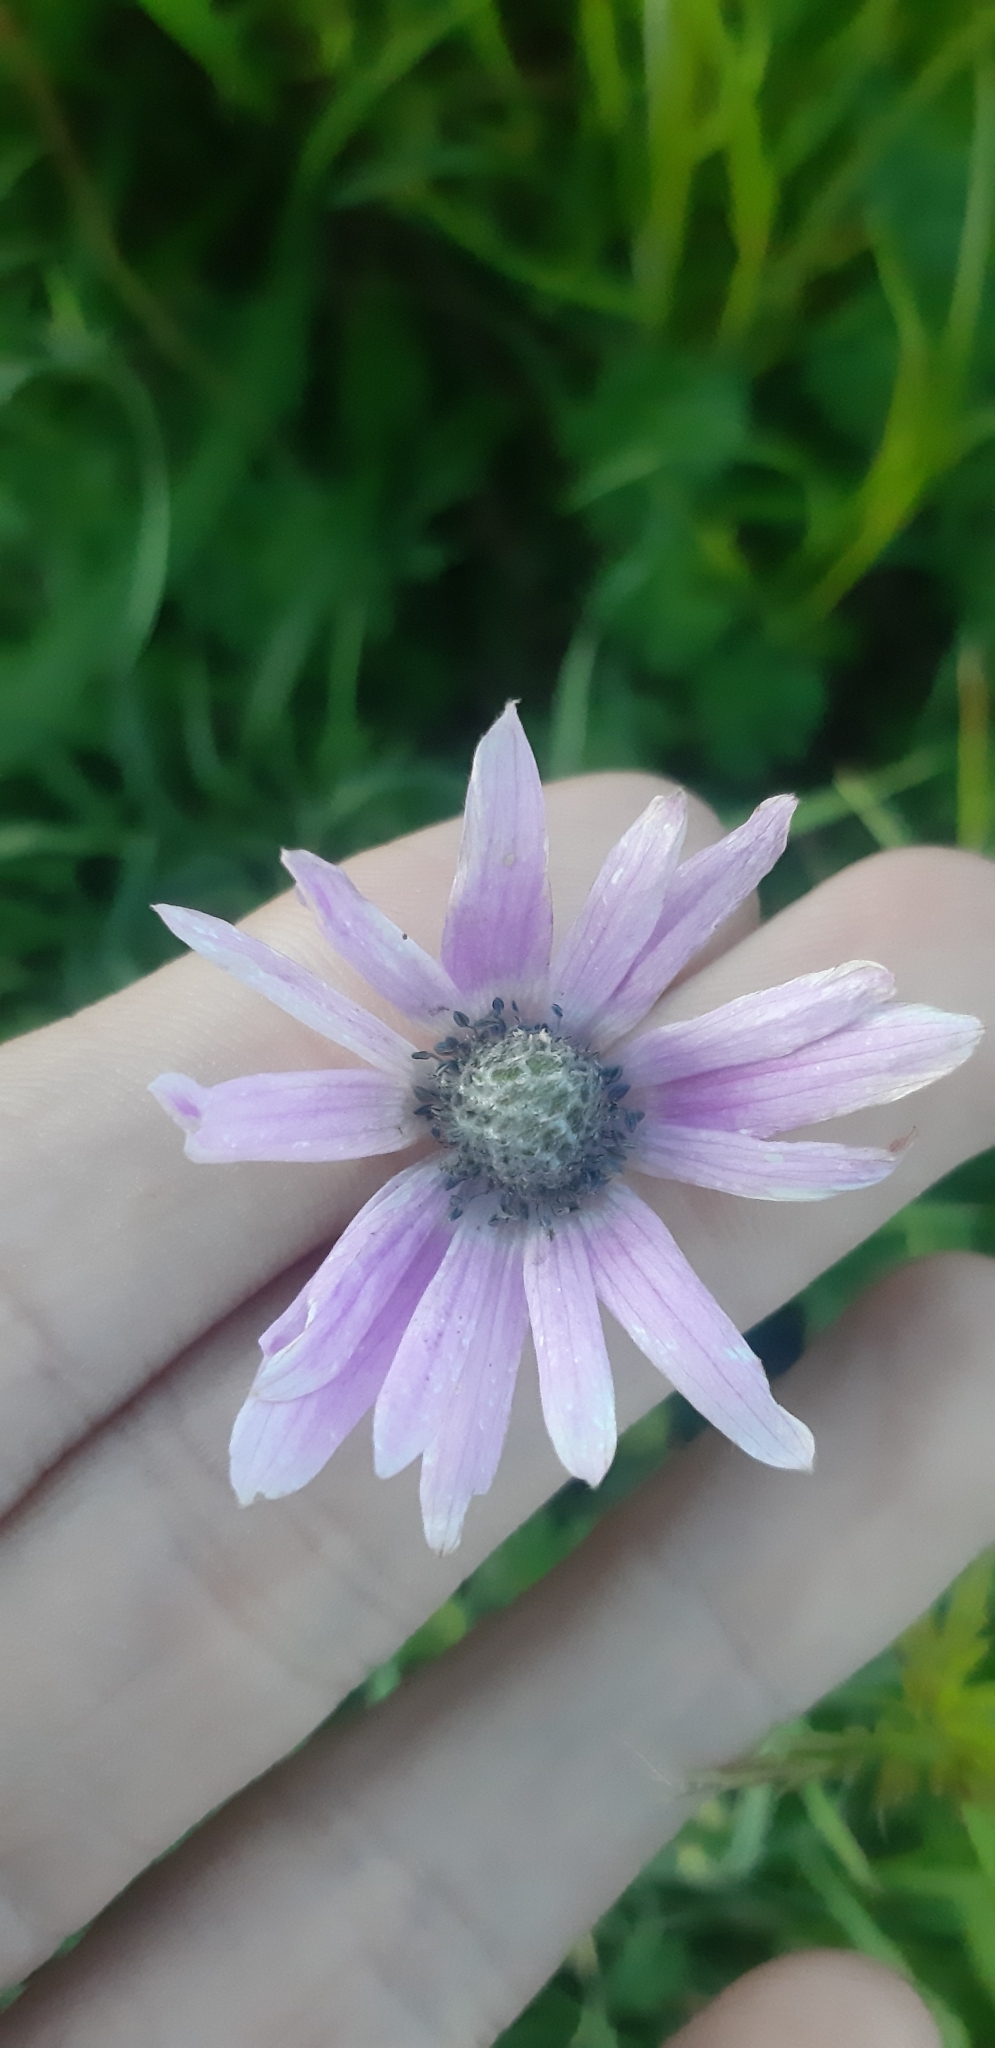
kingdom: Plantae
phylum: Tracheophyta
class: Magnoliopsida
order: Ranunculales
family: Ranunculaceae
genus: Anemone
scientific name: Anemone hortensis
